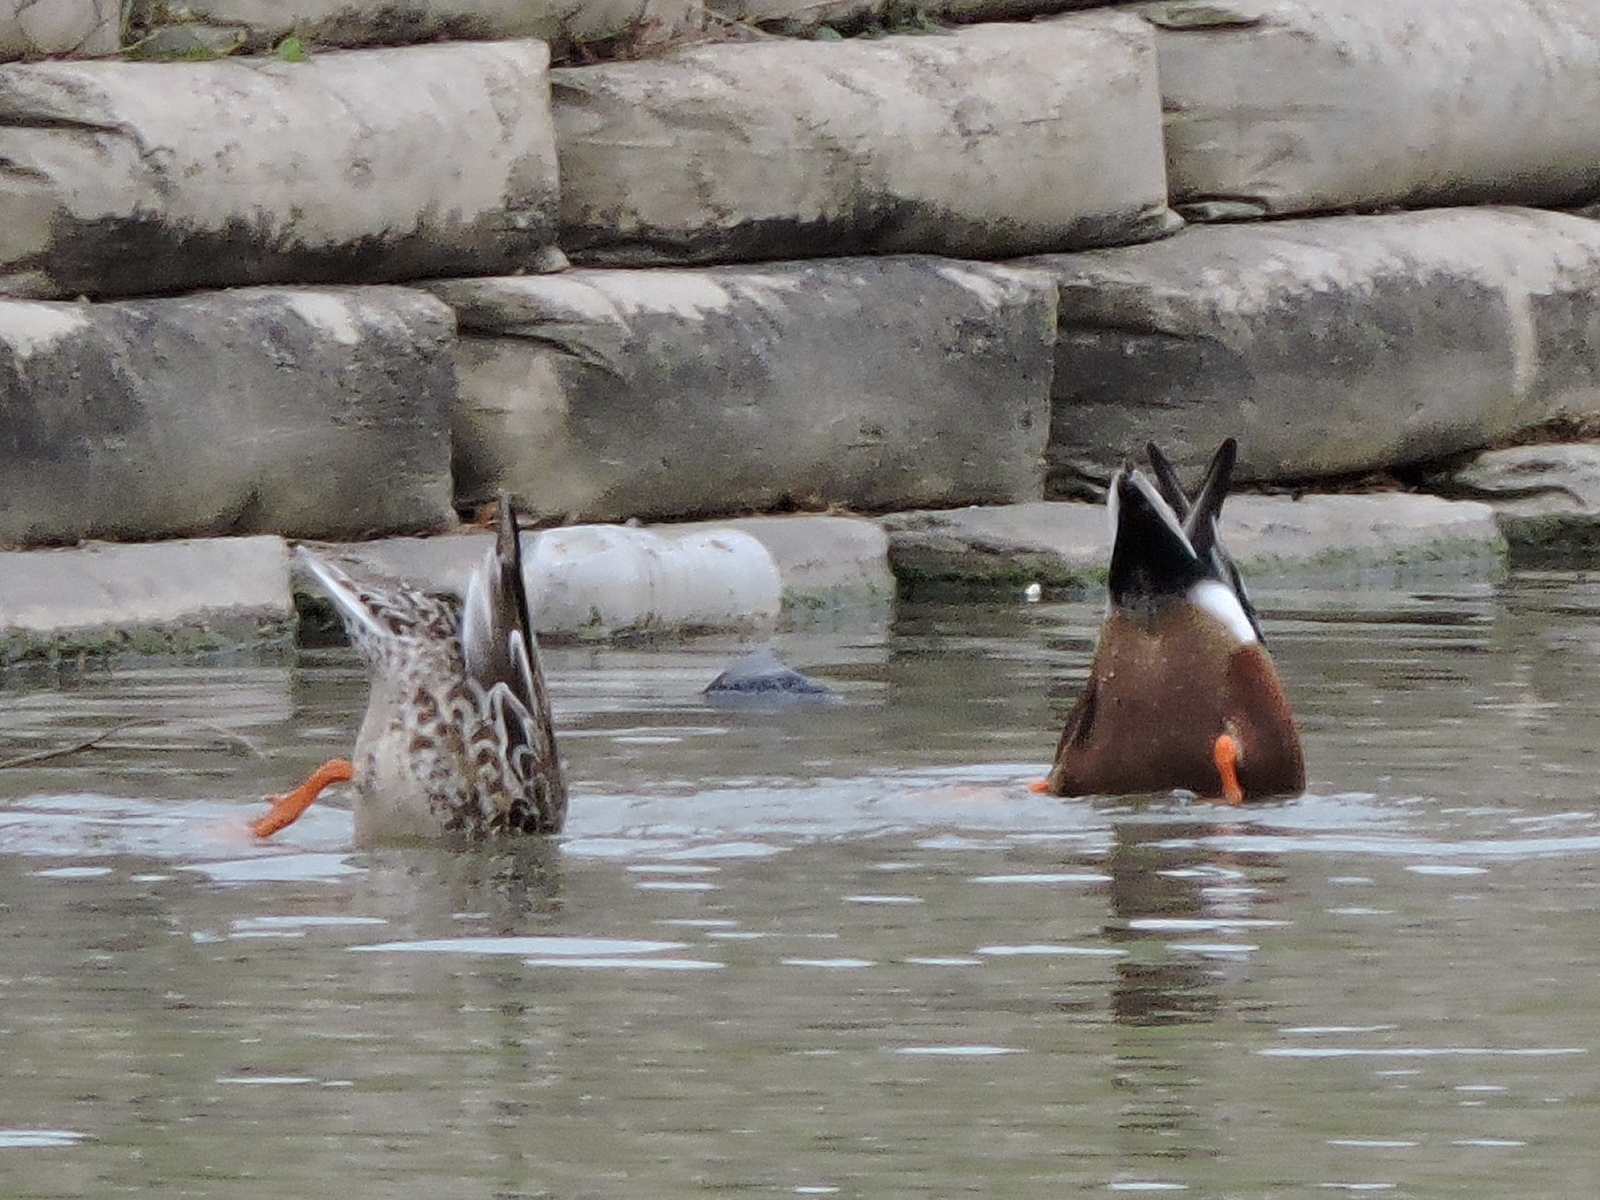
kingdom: Animalia
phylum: Chordata
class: Aves
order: Anseriformes
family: Anatidae
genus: Spatula
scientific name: Spatula clypeata
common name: Northern shoveler
